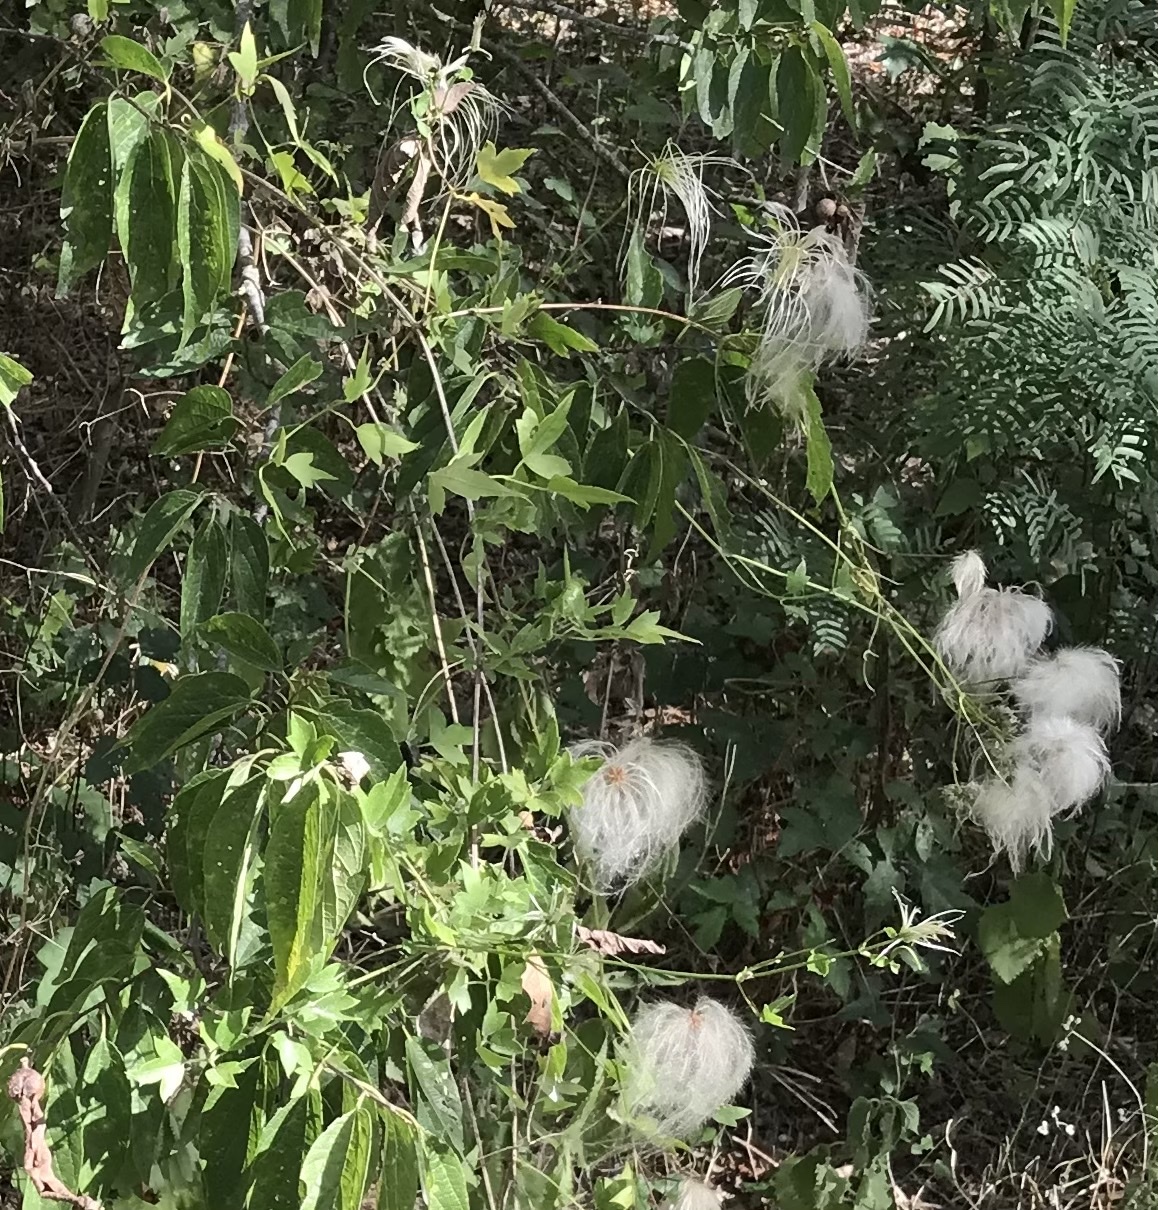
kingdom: Plantae
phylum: Tracheophyta
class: Magnoliopsida
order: Ranunculales
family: Ranunculaceae
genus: Clematis
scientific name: Clematis drummondii
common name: Texas virgin's bower
